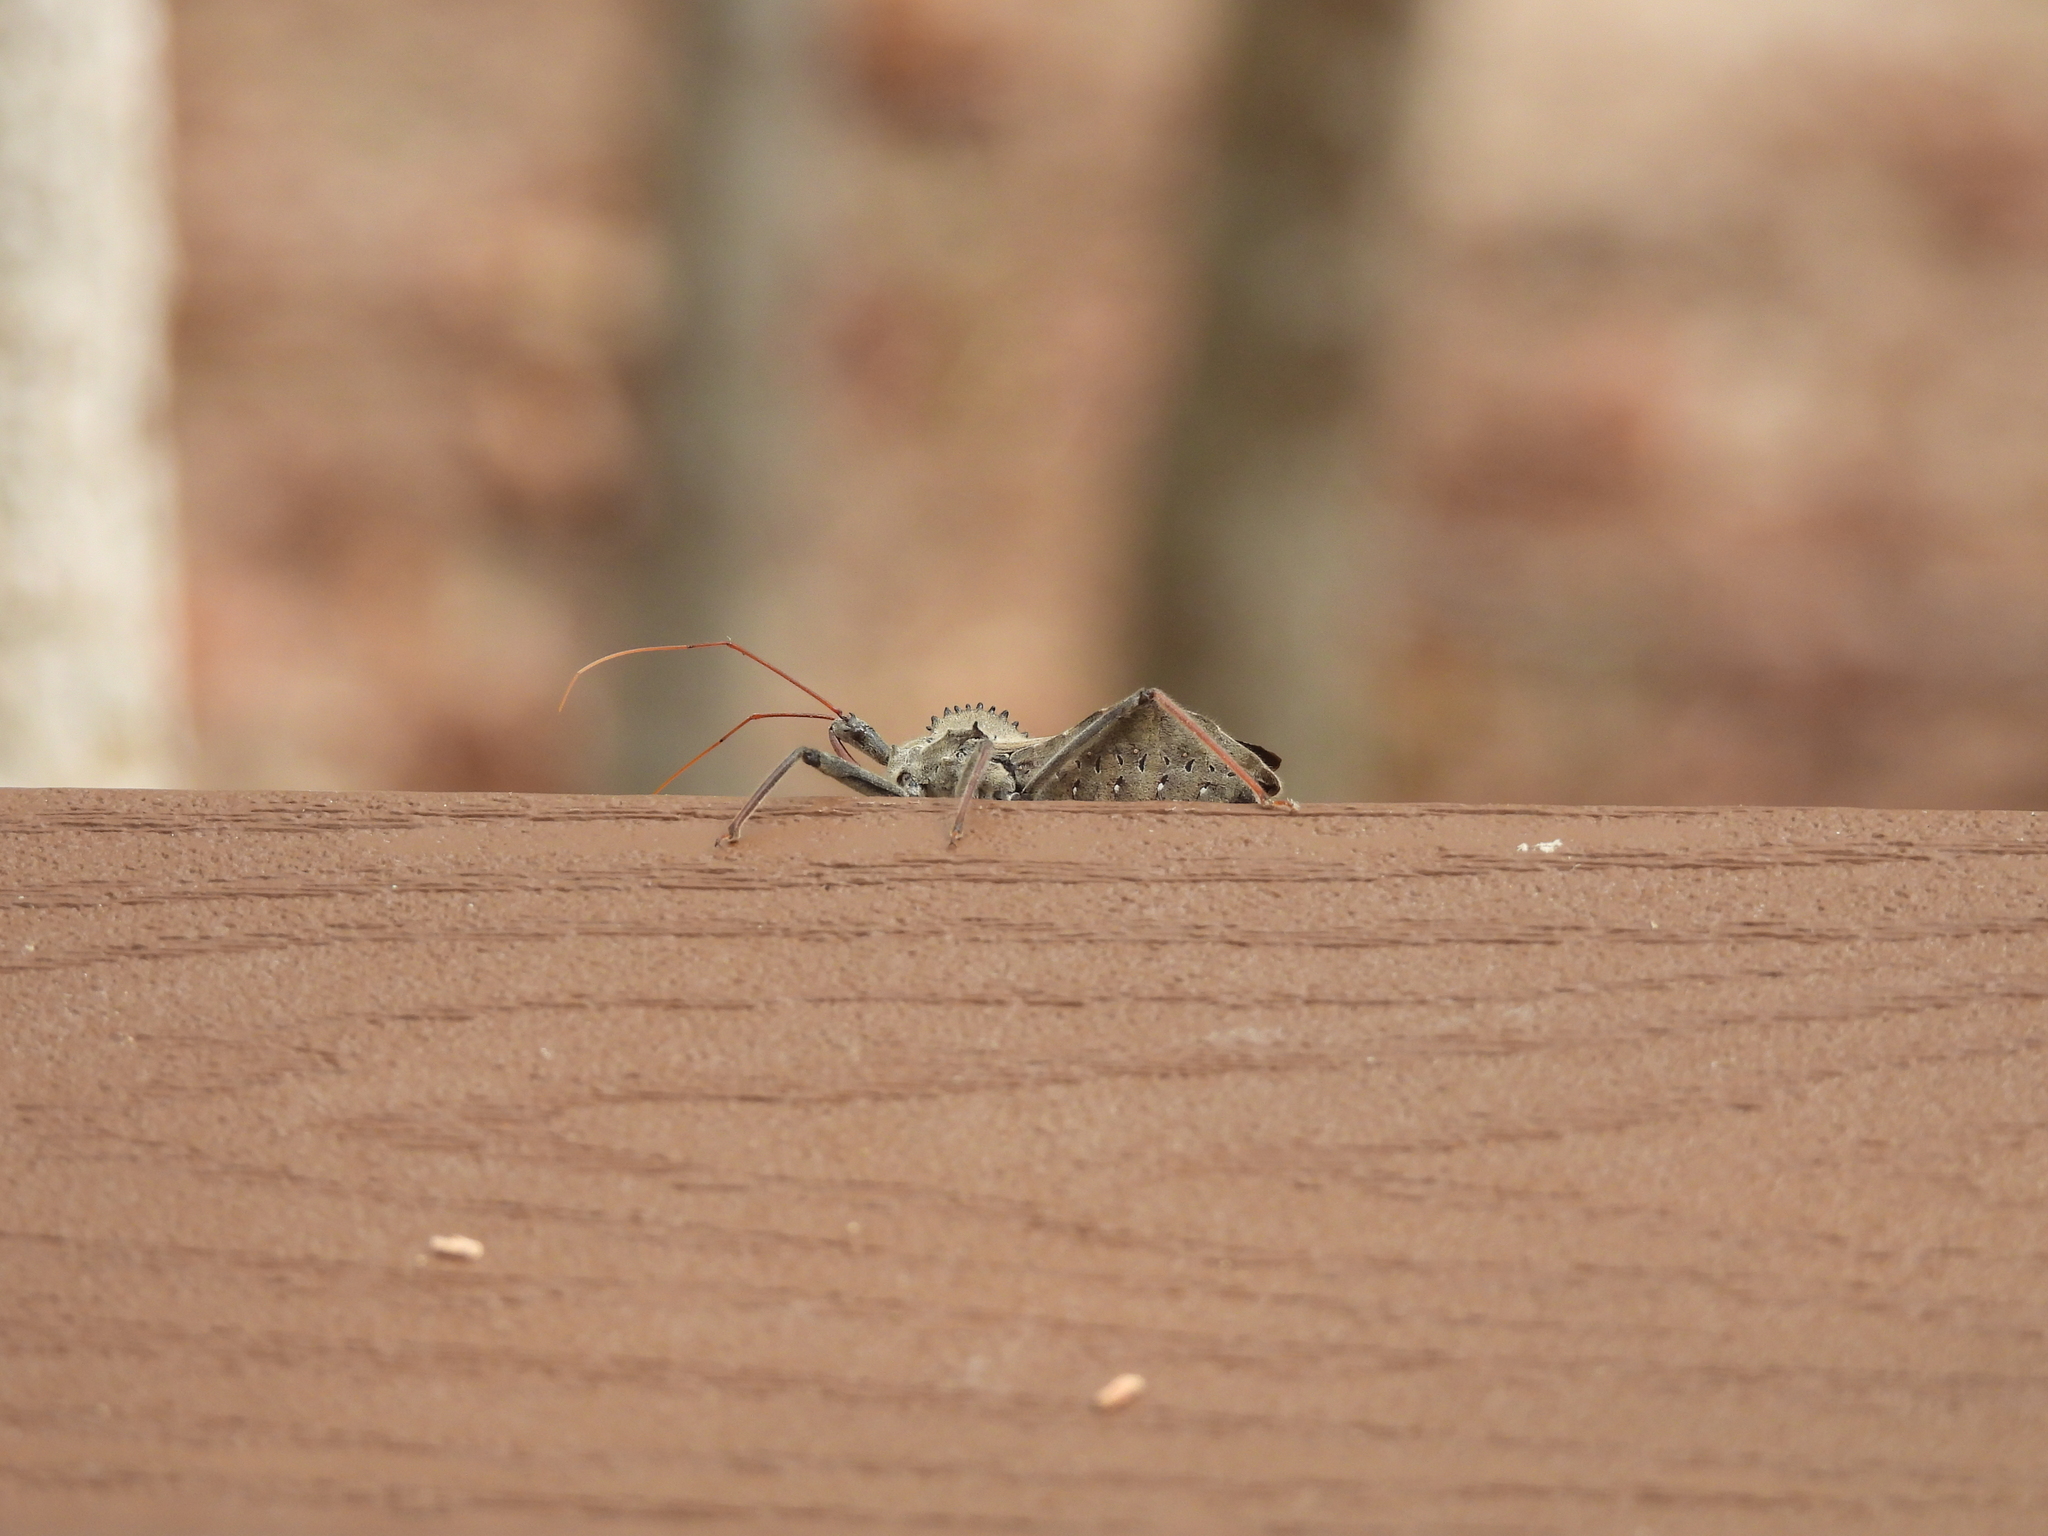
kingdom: Animalia
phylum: Arthropoda
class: Insecta
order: Hemiptera
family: Reduviidae
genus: Arilus
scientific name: Arilus cristatus
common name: North american wheel bug
